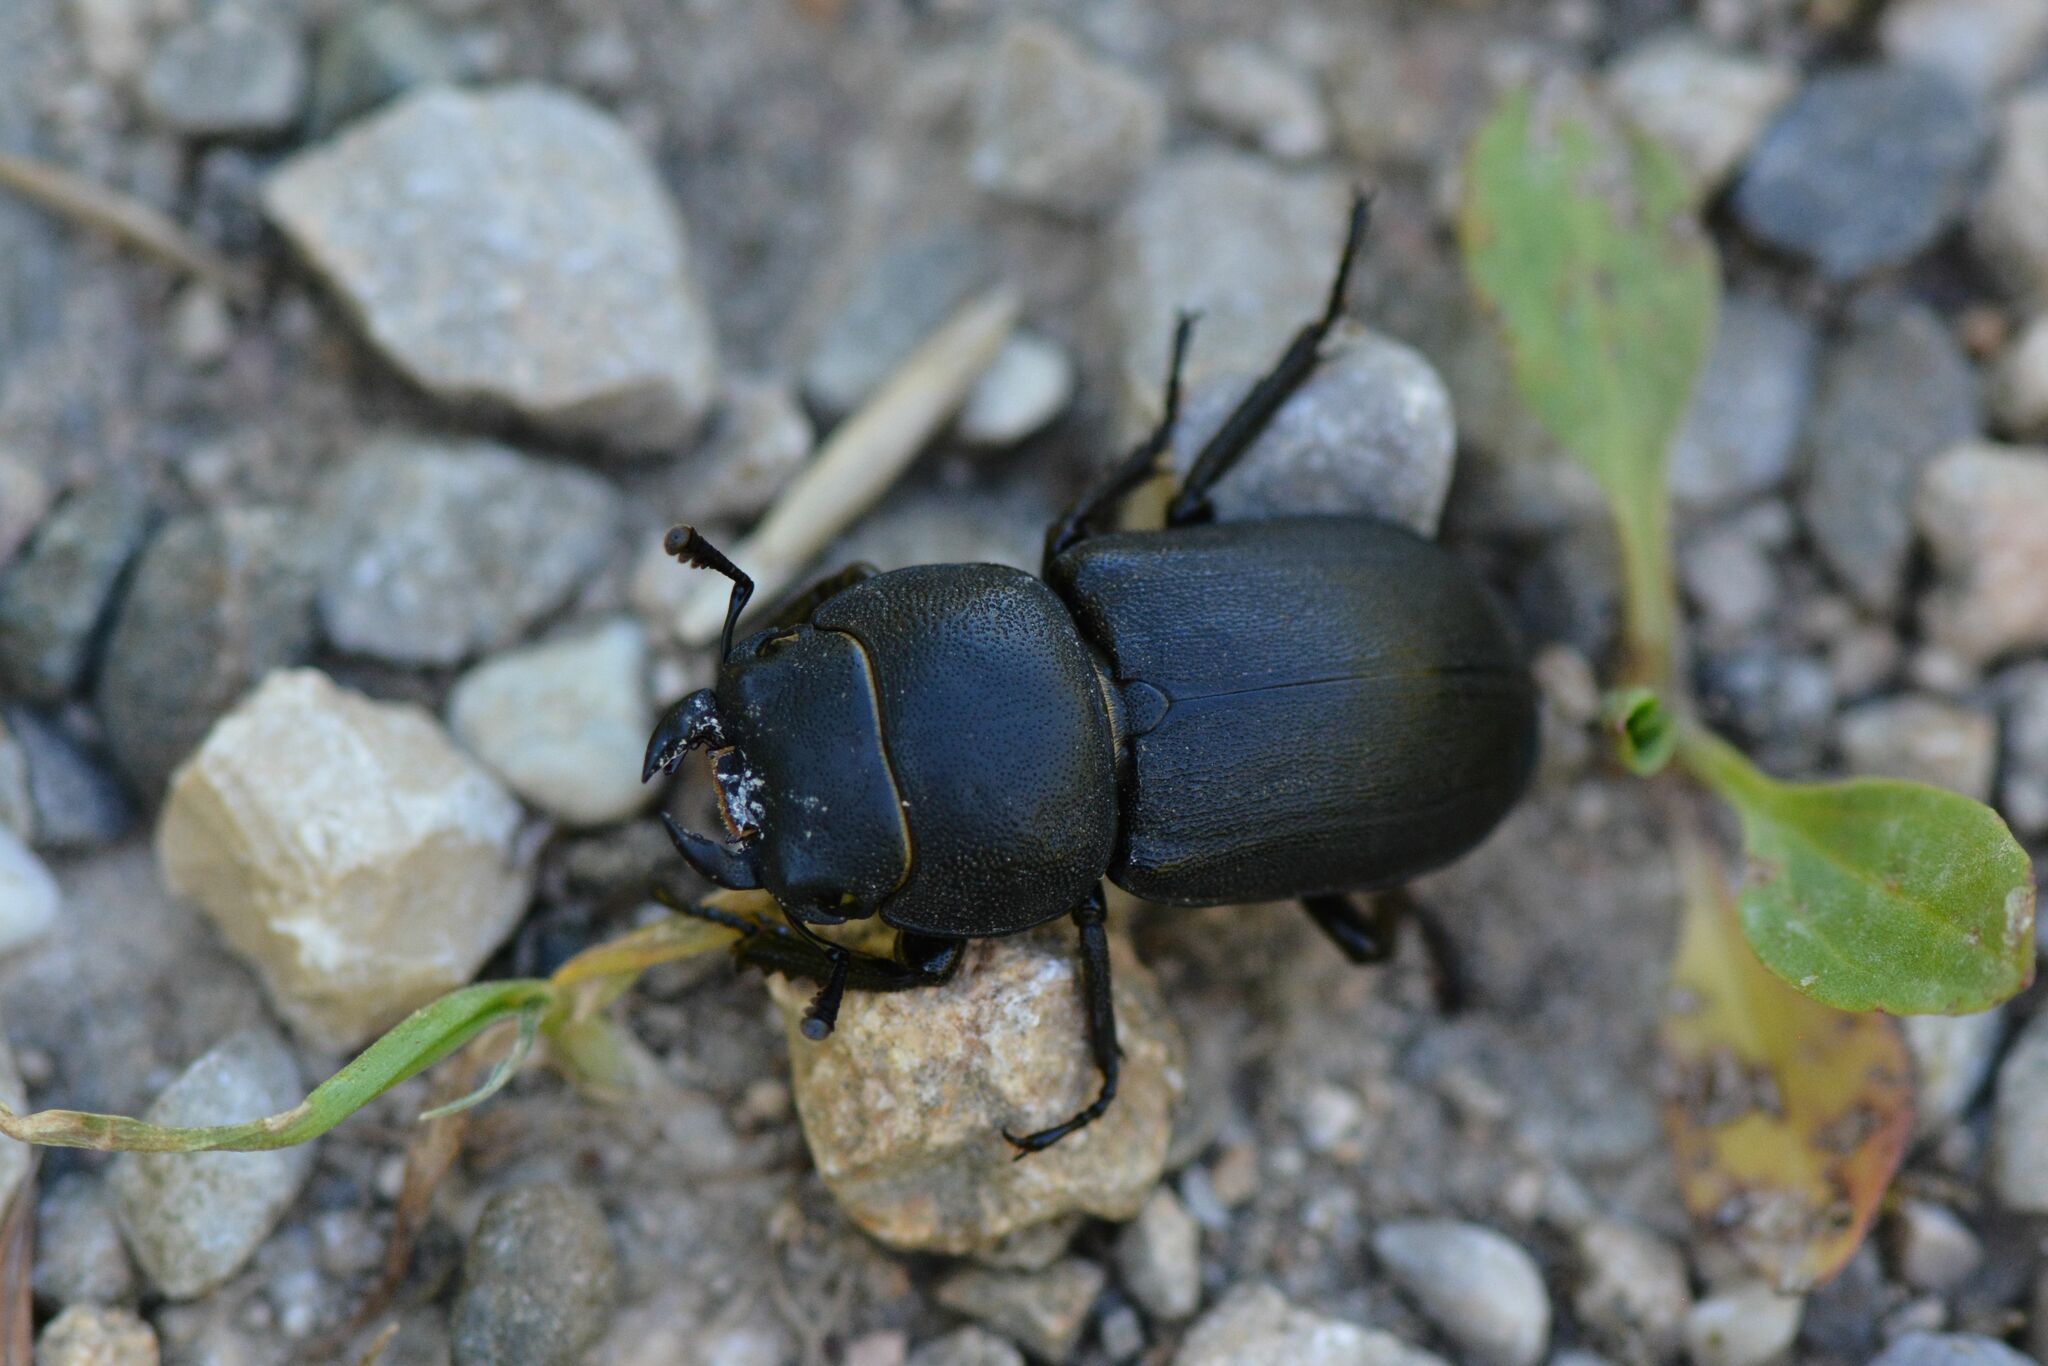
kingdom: Animalia
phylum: Arthropoda
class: Insecta
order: Coleoptera
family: Lucanidae
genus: Dorcus
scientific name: Dorcus parallelipipedus
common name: Lesser stag beetle
